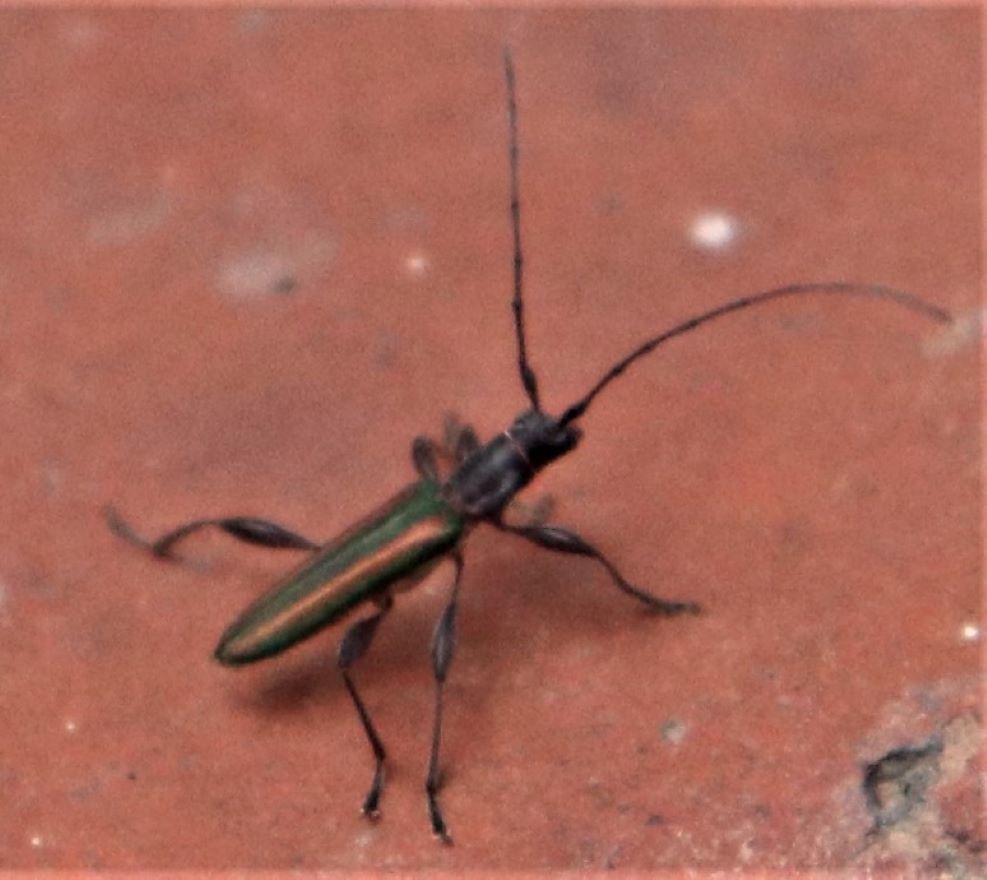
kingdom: Animalia
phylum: Arthropoda
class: Insecta
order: Coleoptera
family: Cerambycidae
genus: Zosterius
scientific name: Zosterius laetus
